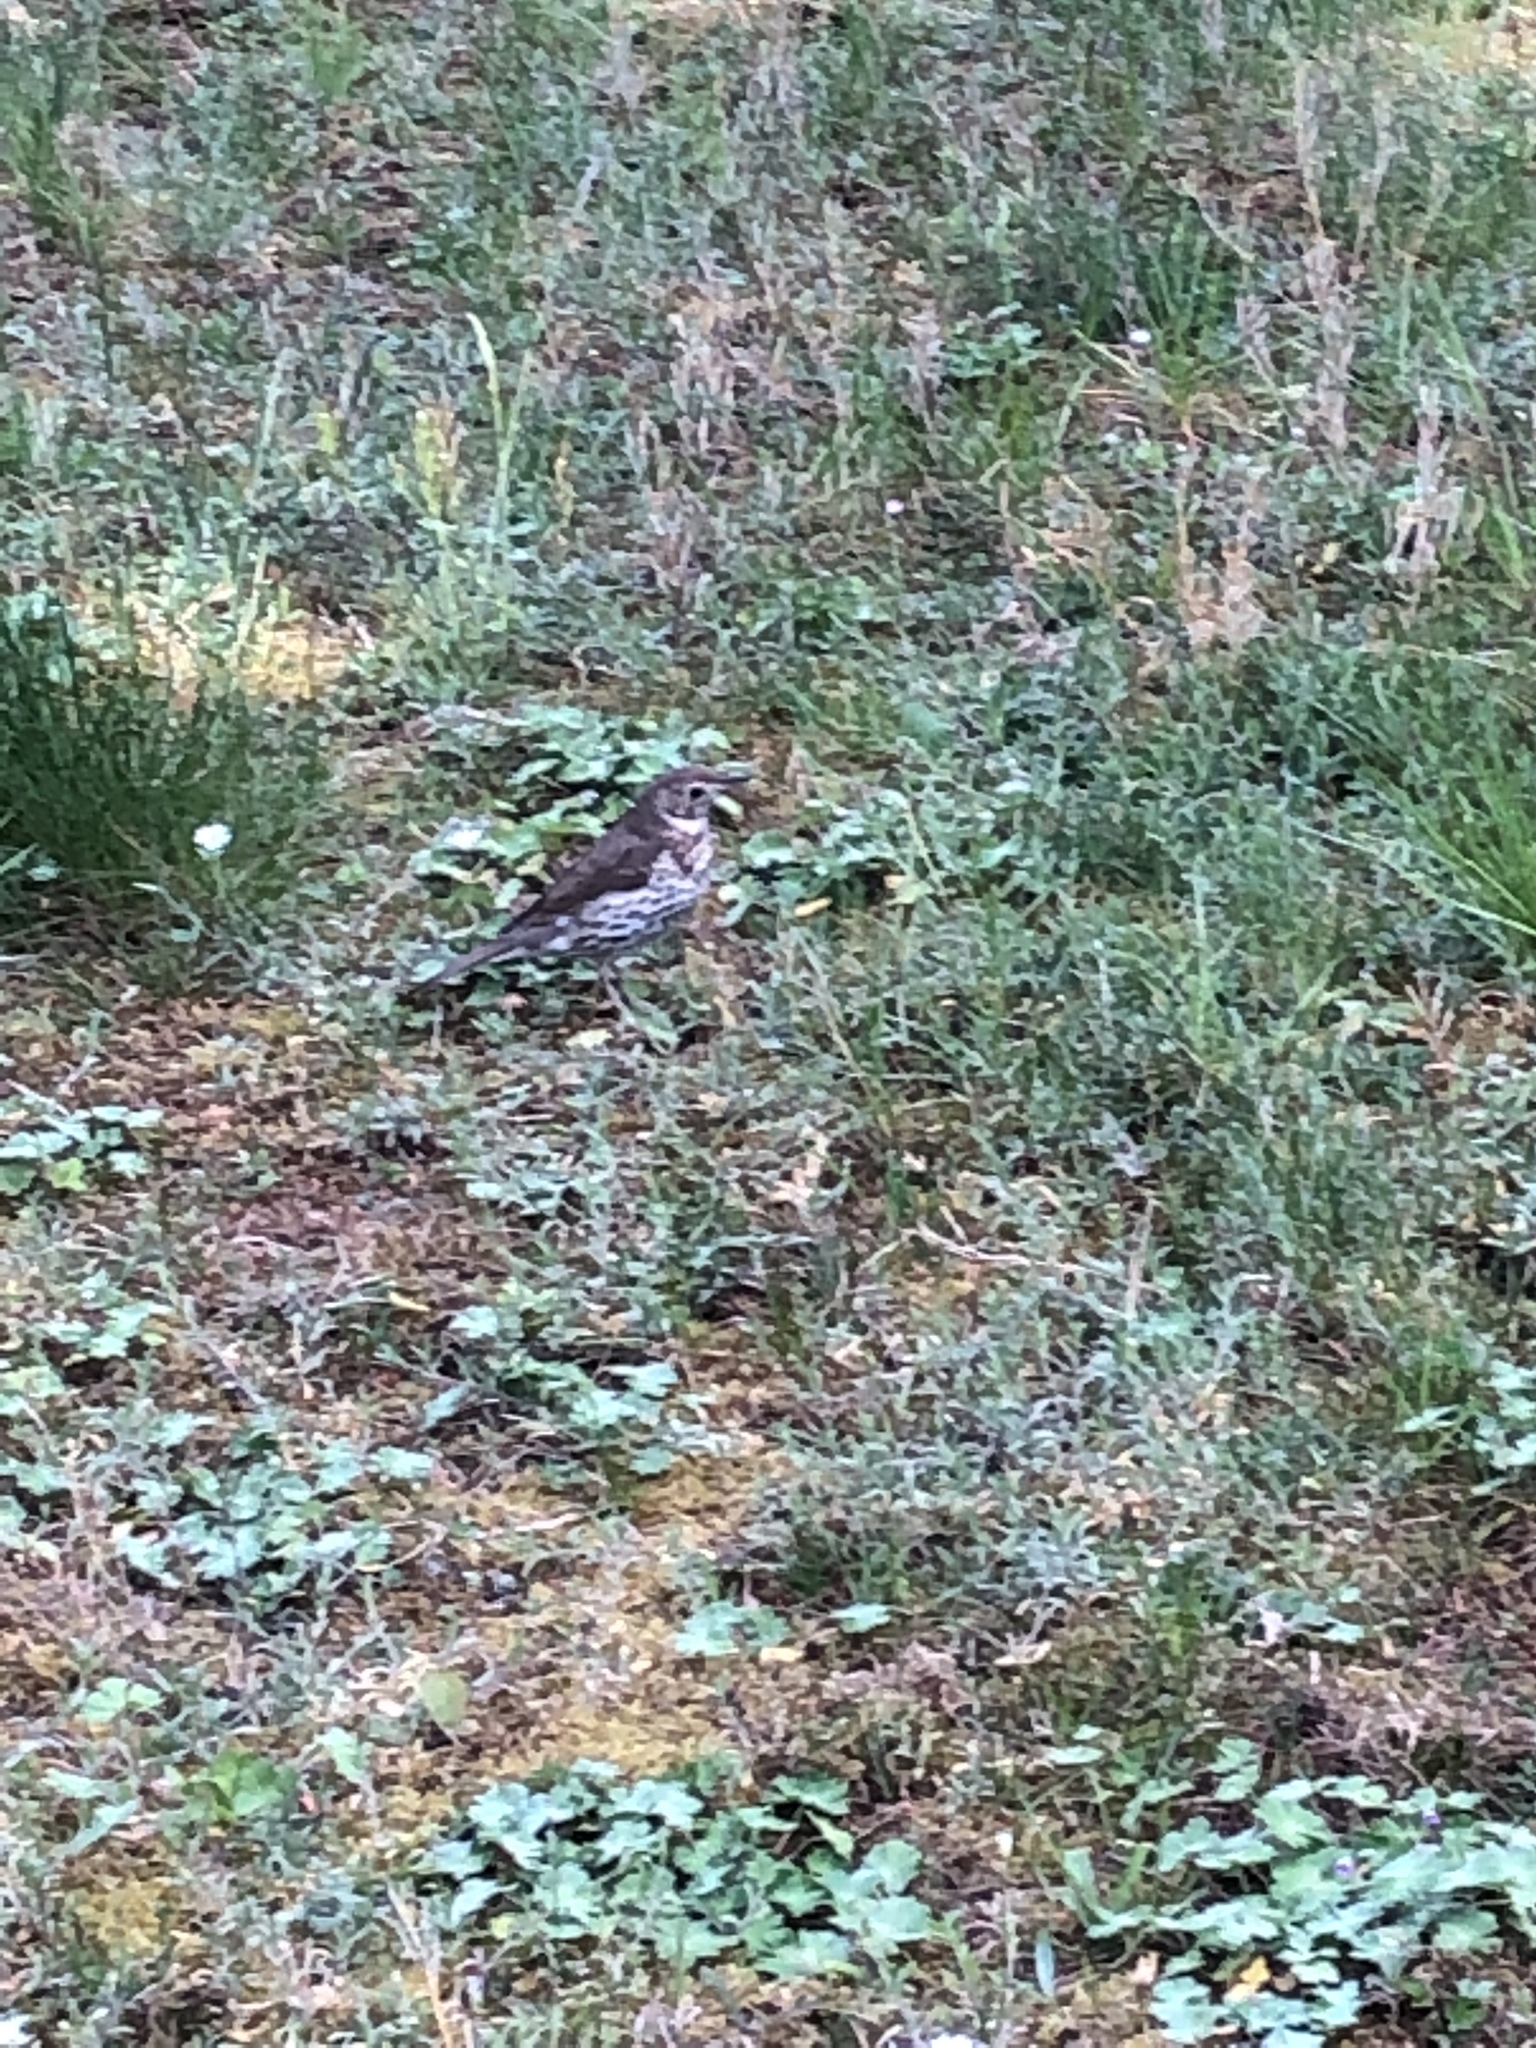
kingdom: Animalia
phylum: Chordata
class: Aves
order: Passeriformes
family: Turdidae
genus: Turdus
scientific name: Turdus philomelos
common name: Song thrush
